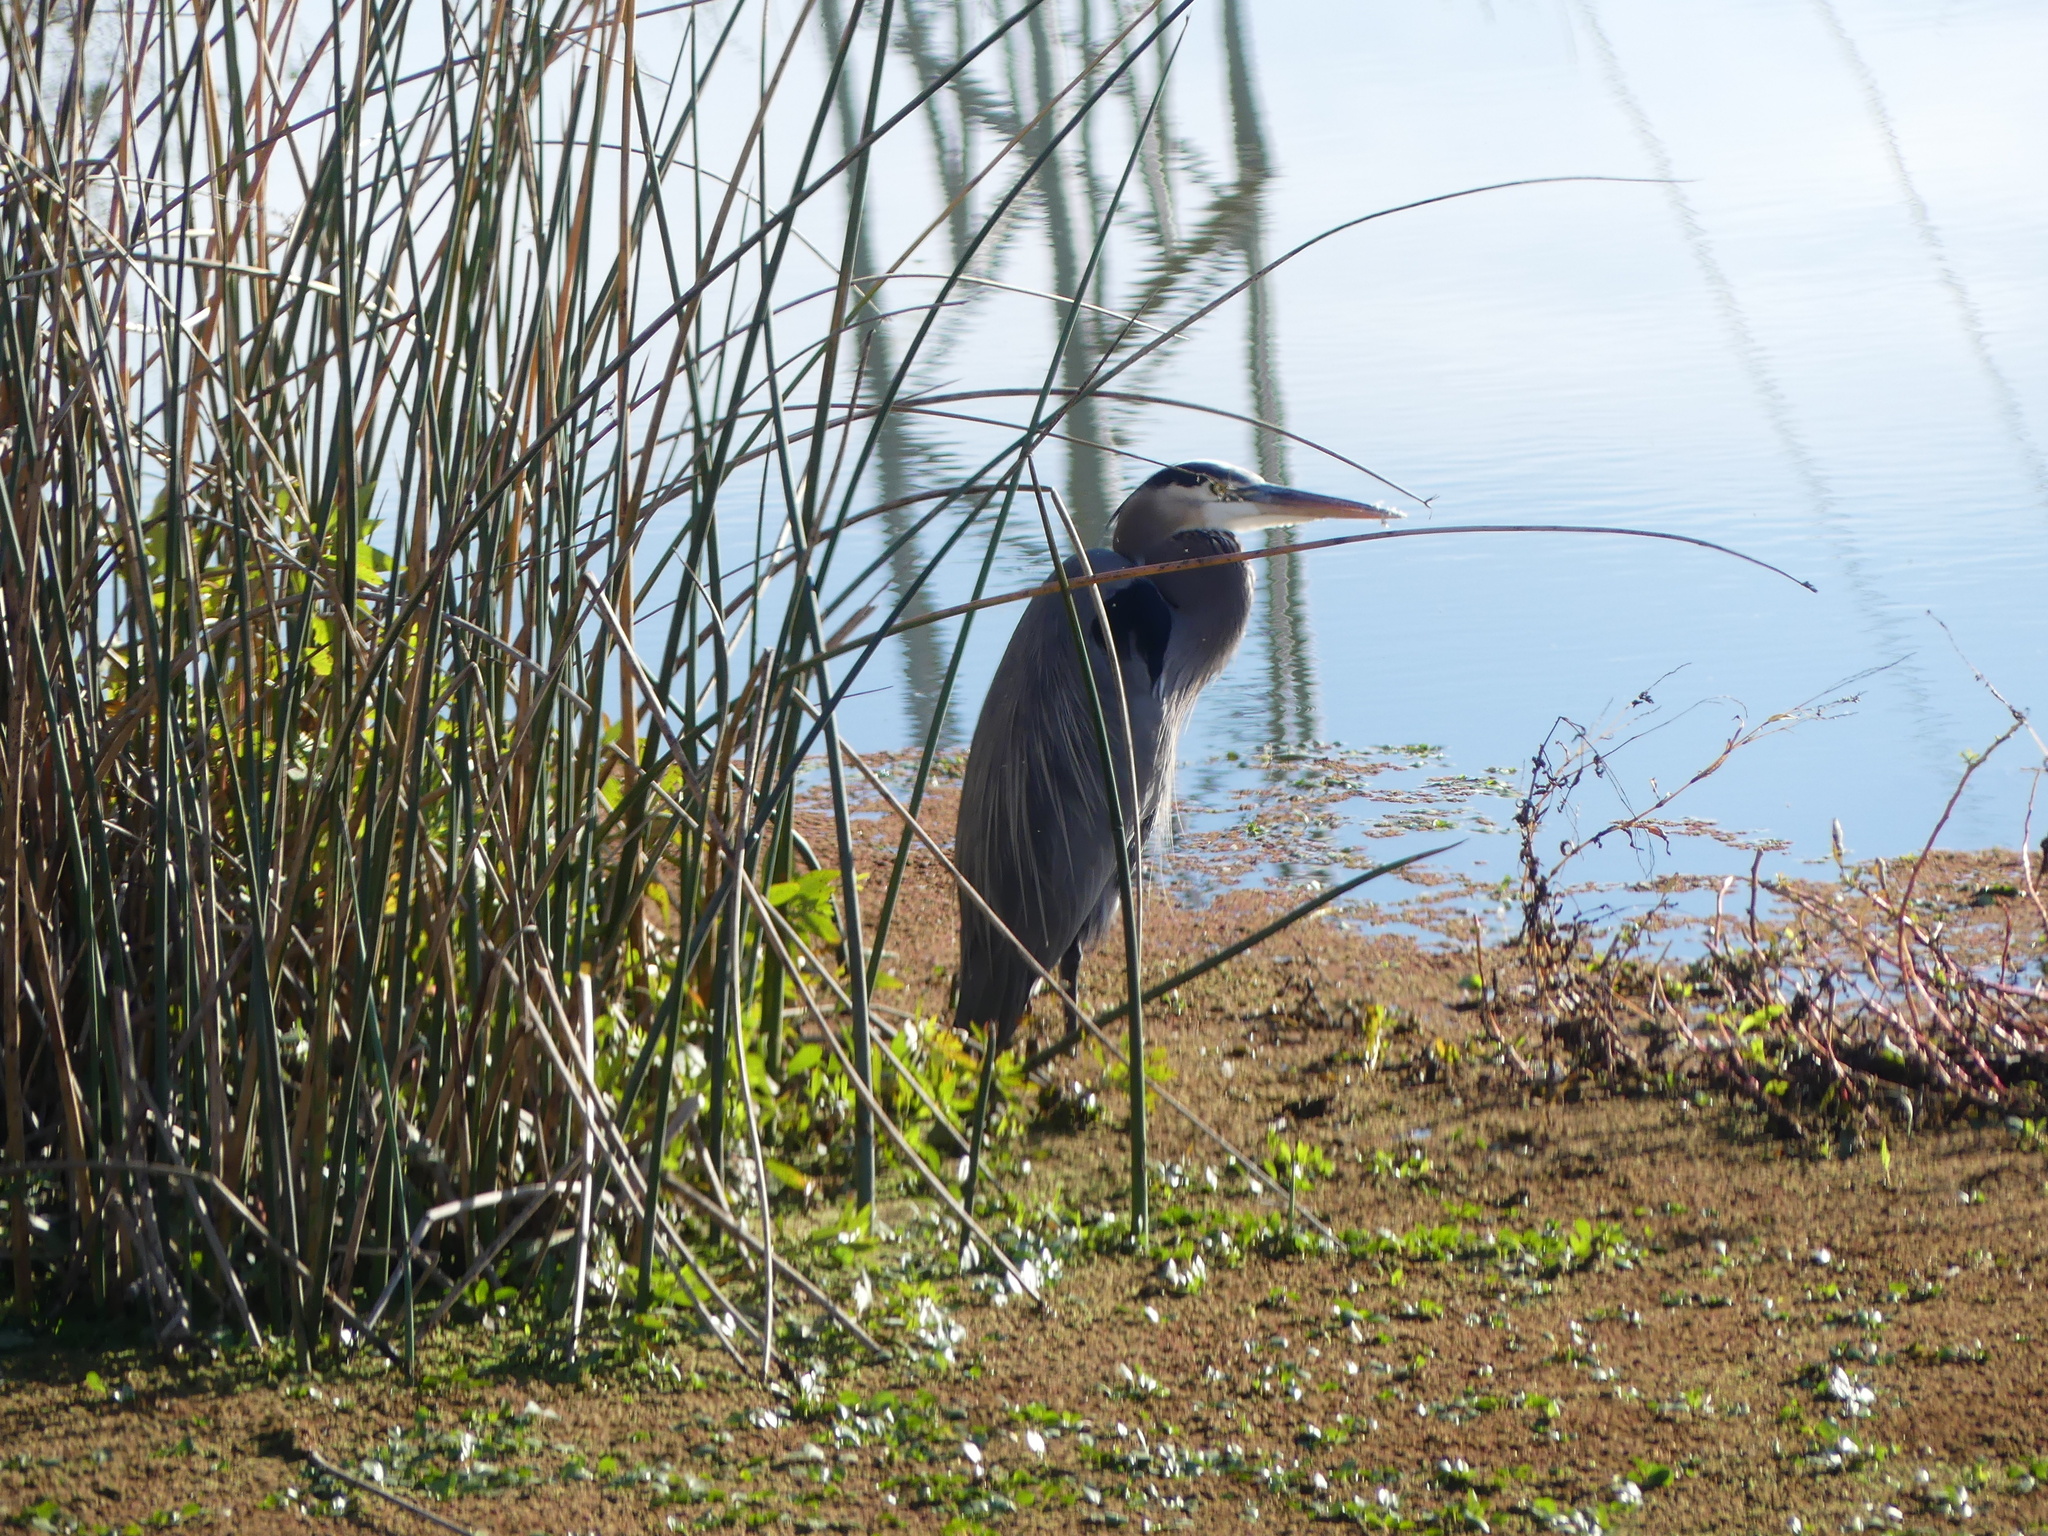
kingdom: Animalia
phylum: Chordata
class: Aves
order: Pelecaniformes
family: Ardeidae
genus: Ardea
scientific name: Ardea herodias
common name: Great blue heron
